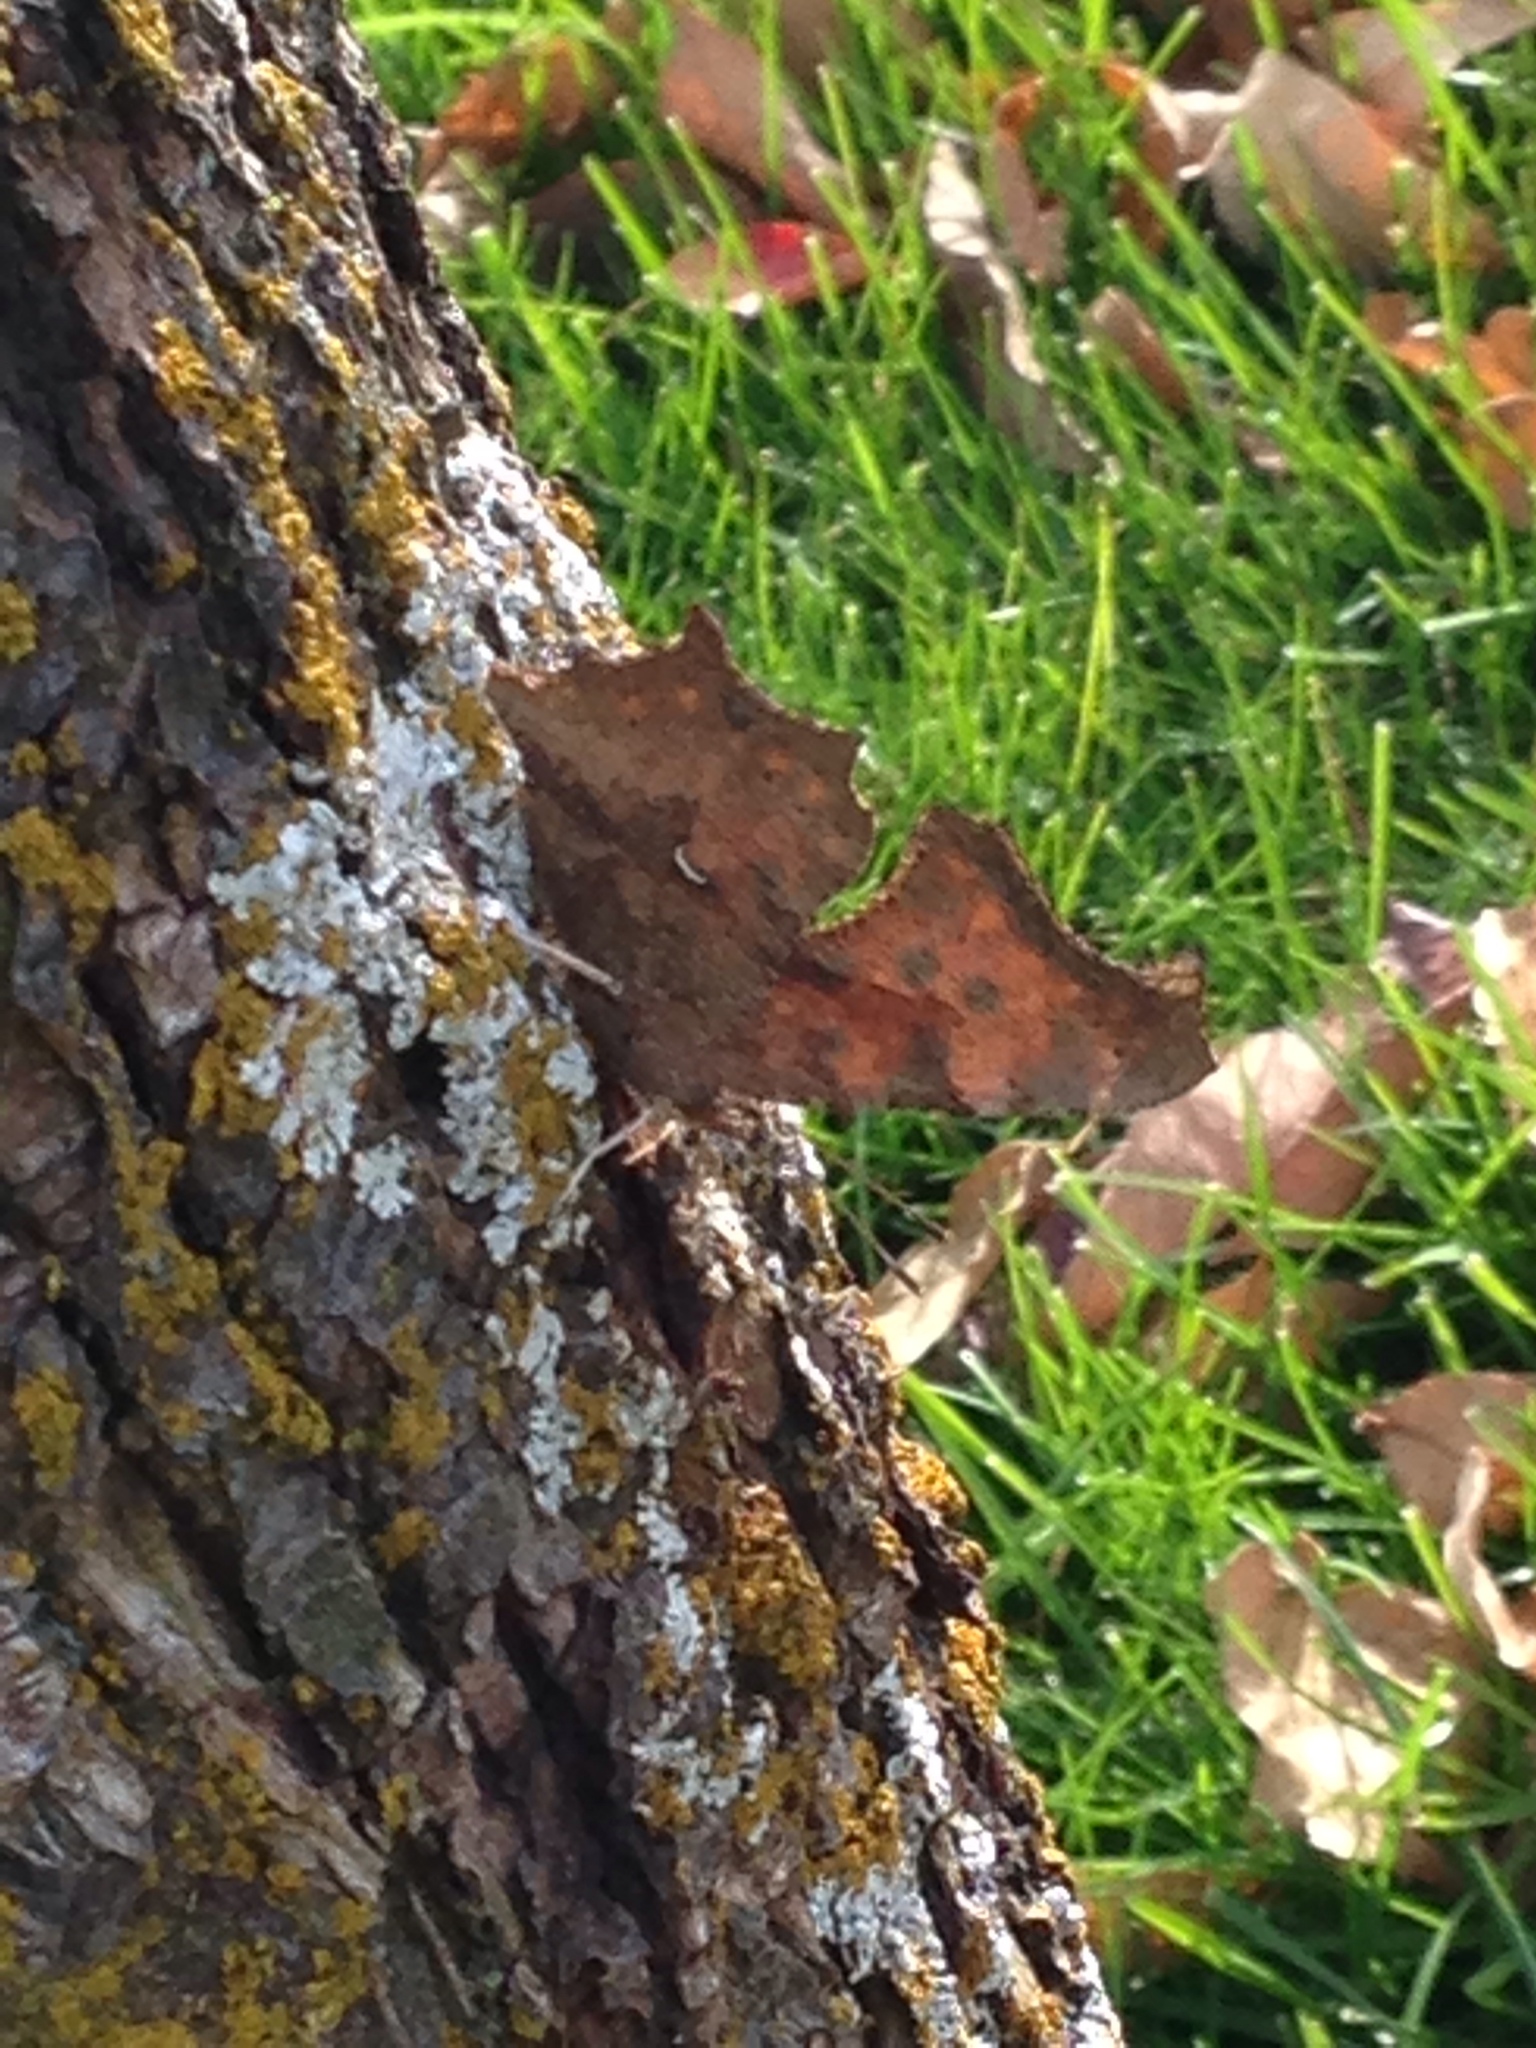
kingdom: Animalia
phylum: Arthropoda
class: Insecta
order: Lepidoptera
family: Nymphalidae
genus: Polygonia
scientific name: Polygonia comma
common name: Eastern comma
